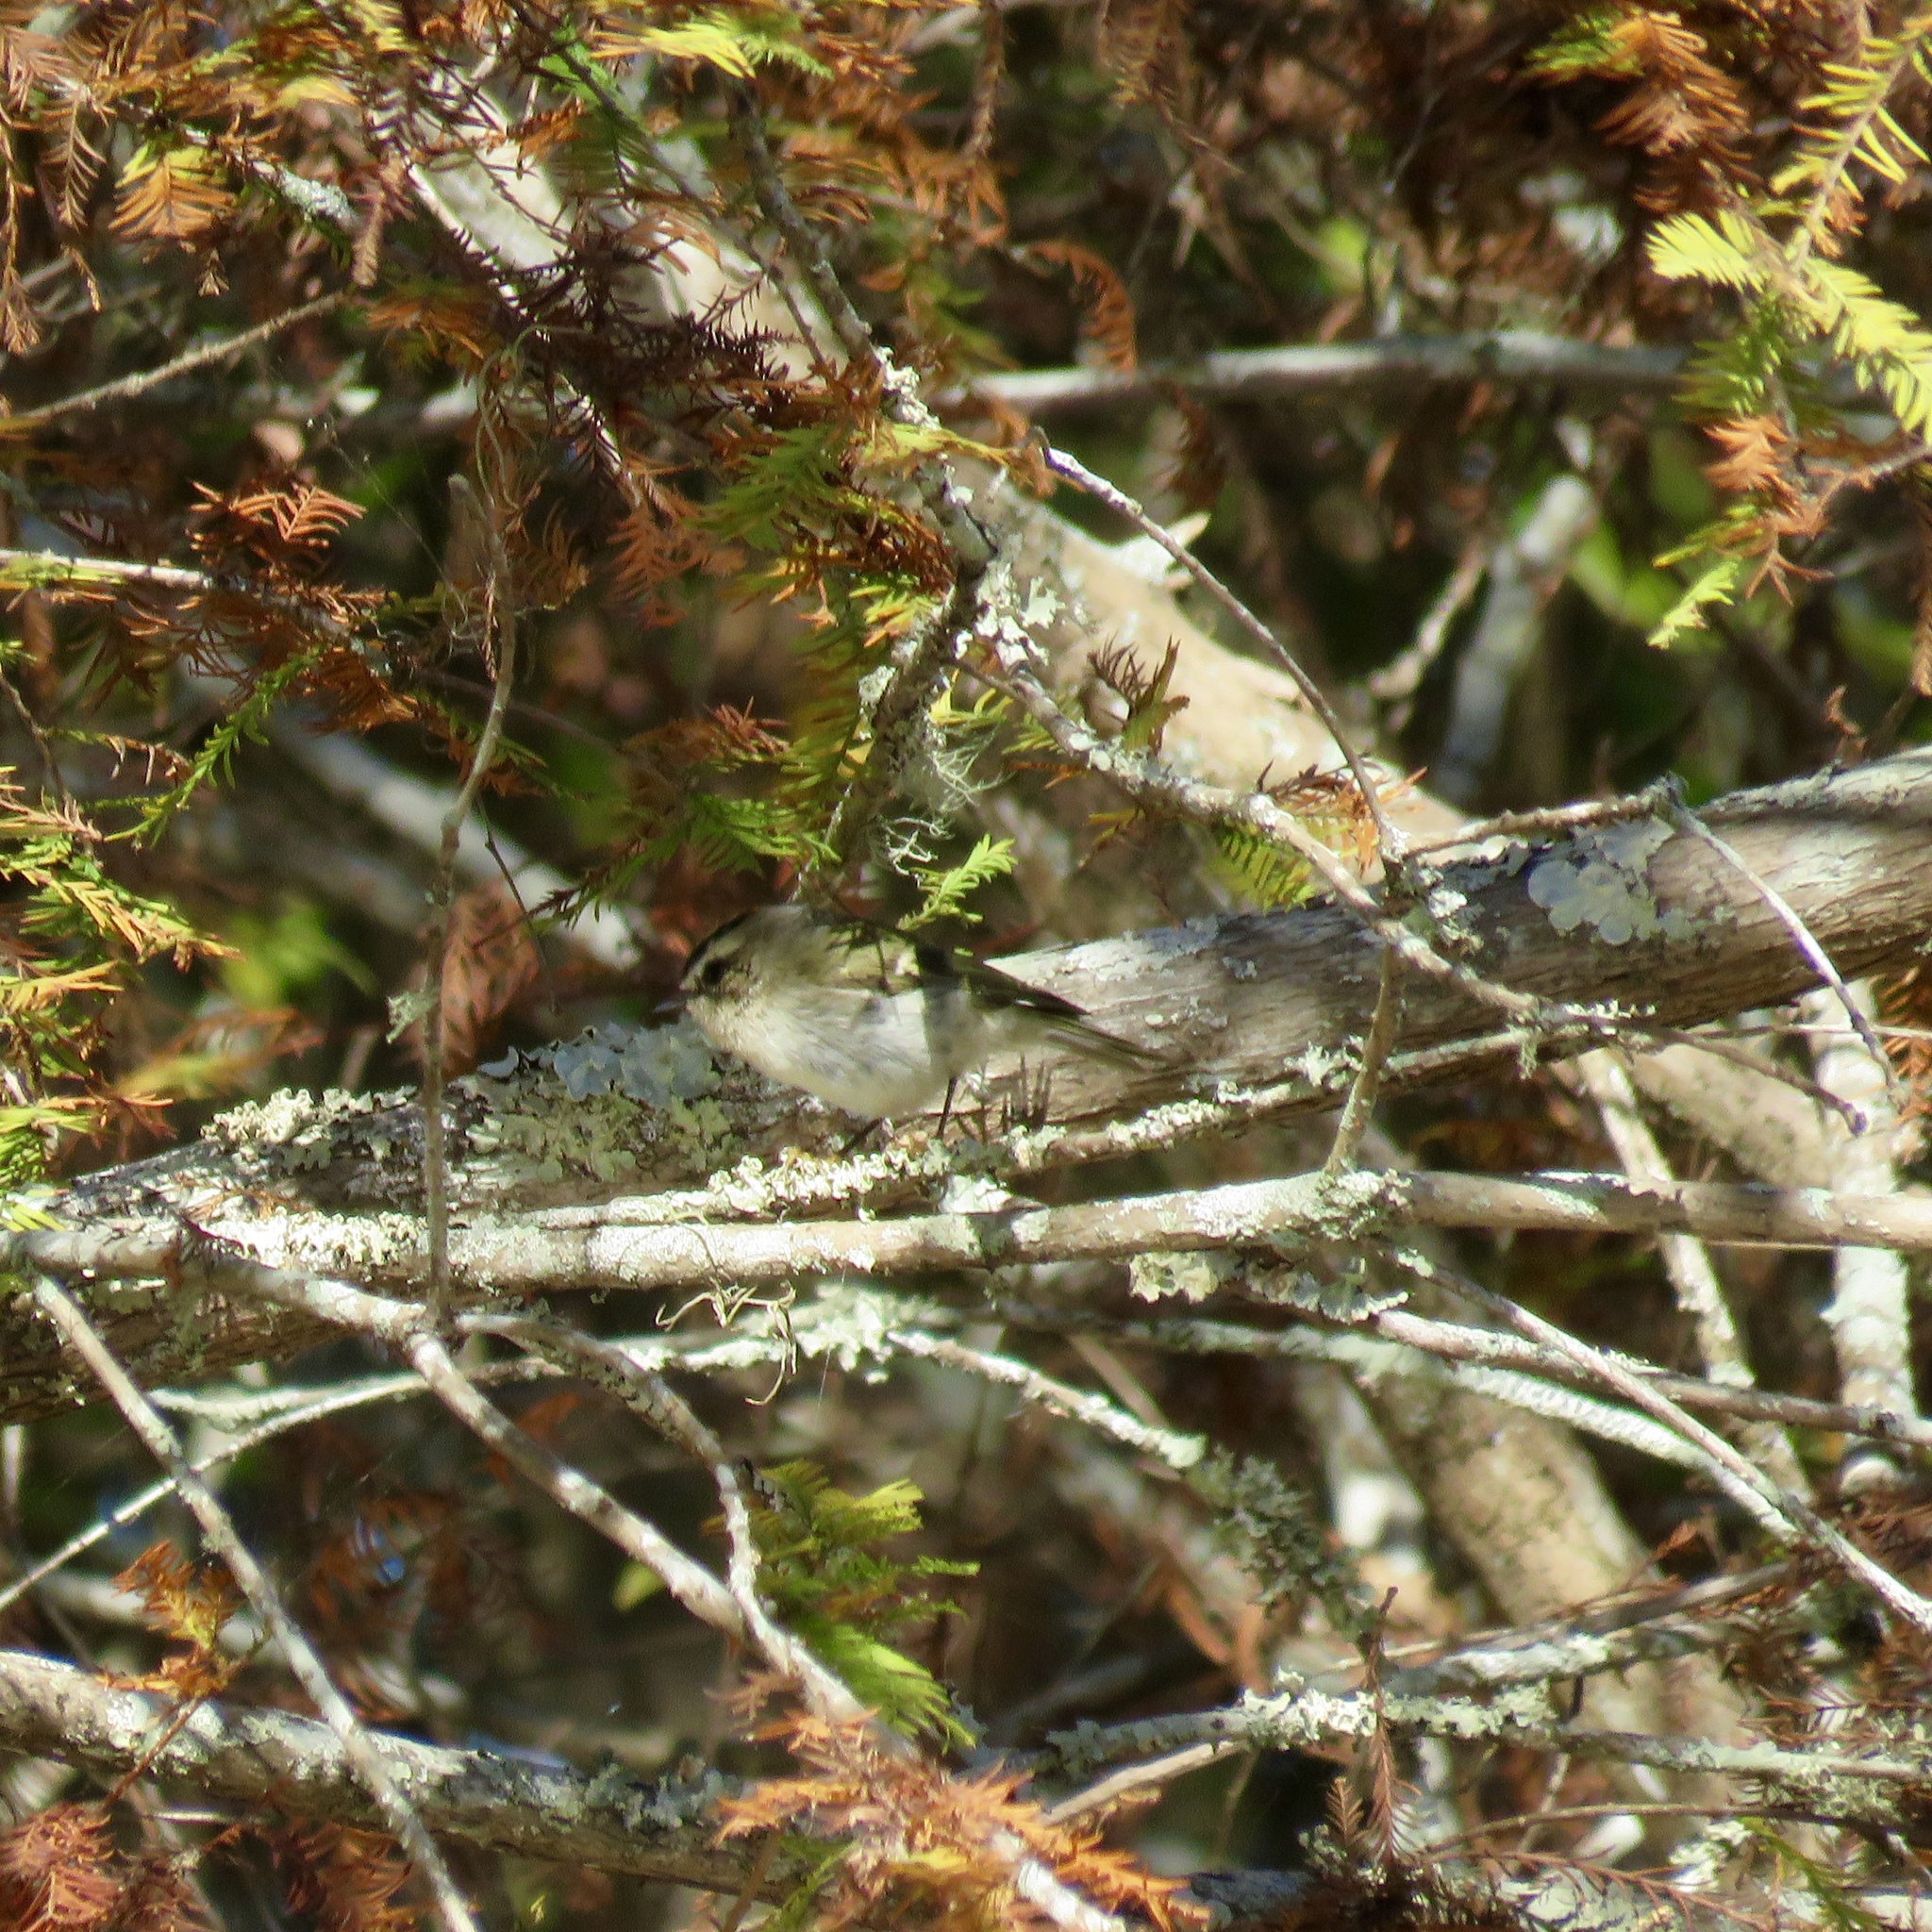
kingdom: Animalia
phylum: Chordata
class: Aves
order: Passeriformes
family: Regulidae
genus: Regulus
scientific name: Regulus satrapa
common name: Golden-crowned kinglet
